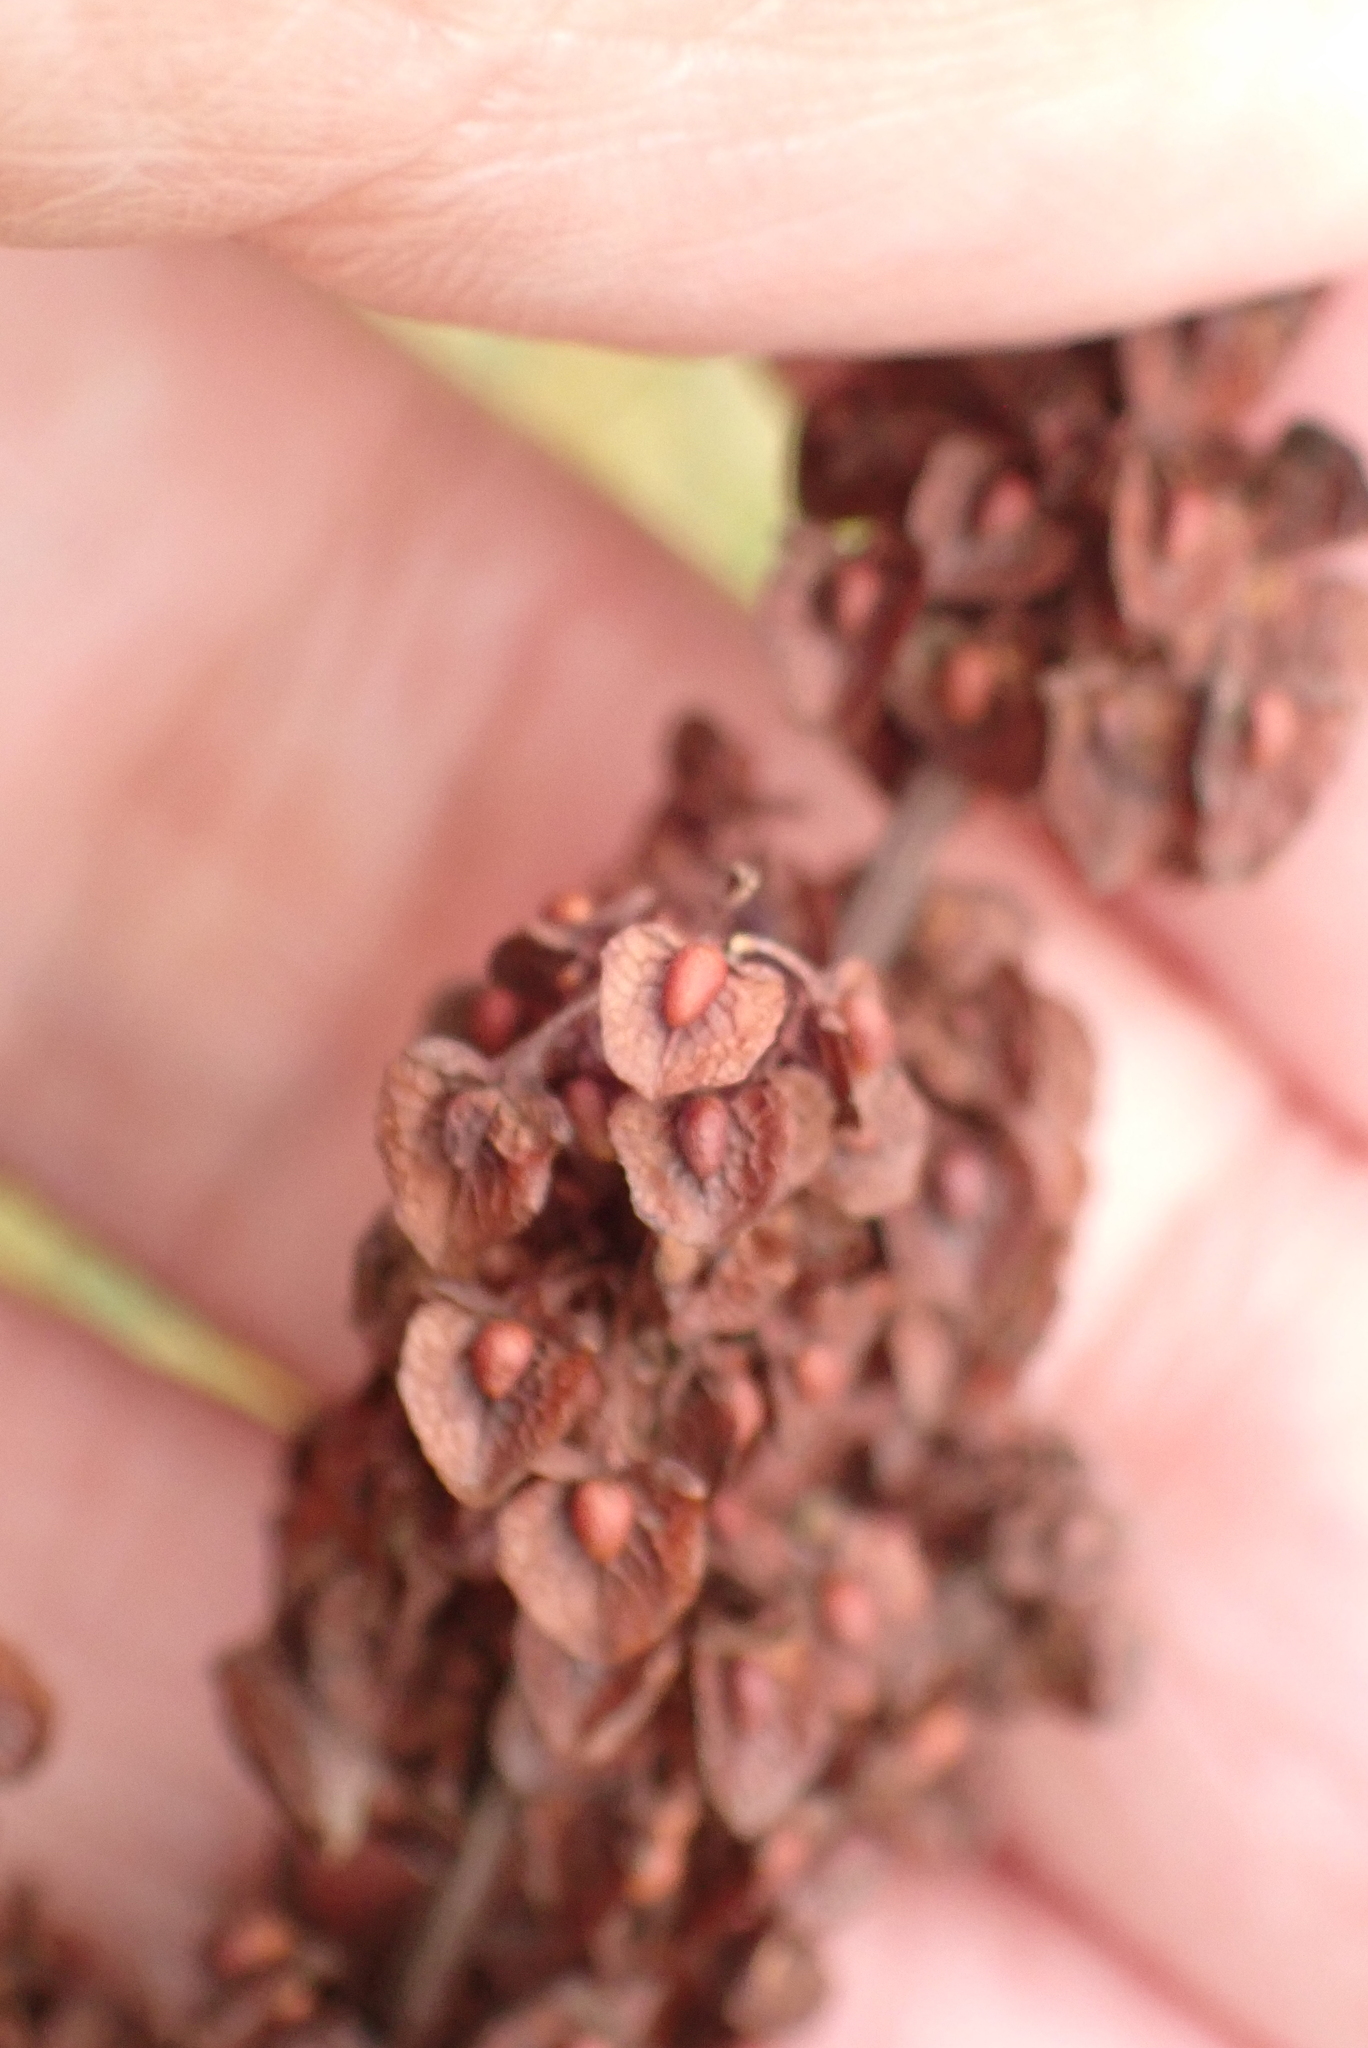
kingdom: Plantae
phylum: Tracheophyta
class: Magnoliopsida
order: Caryophyllales
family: Polygonaceae
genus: Rumex
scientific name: Rumex crispus
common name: Curled dock
